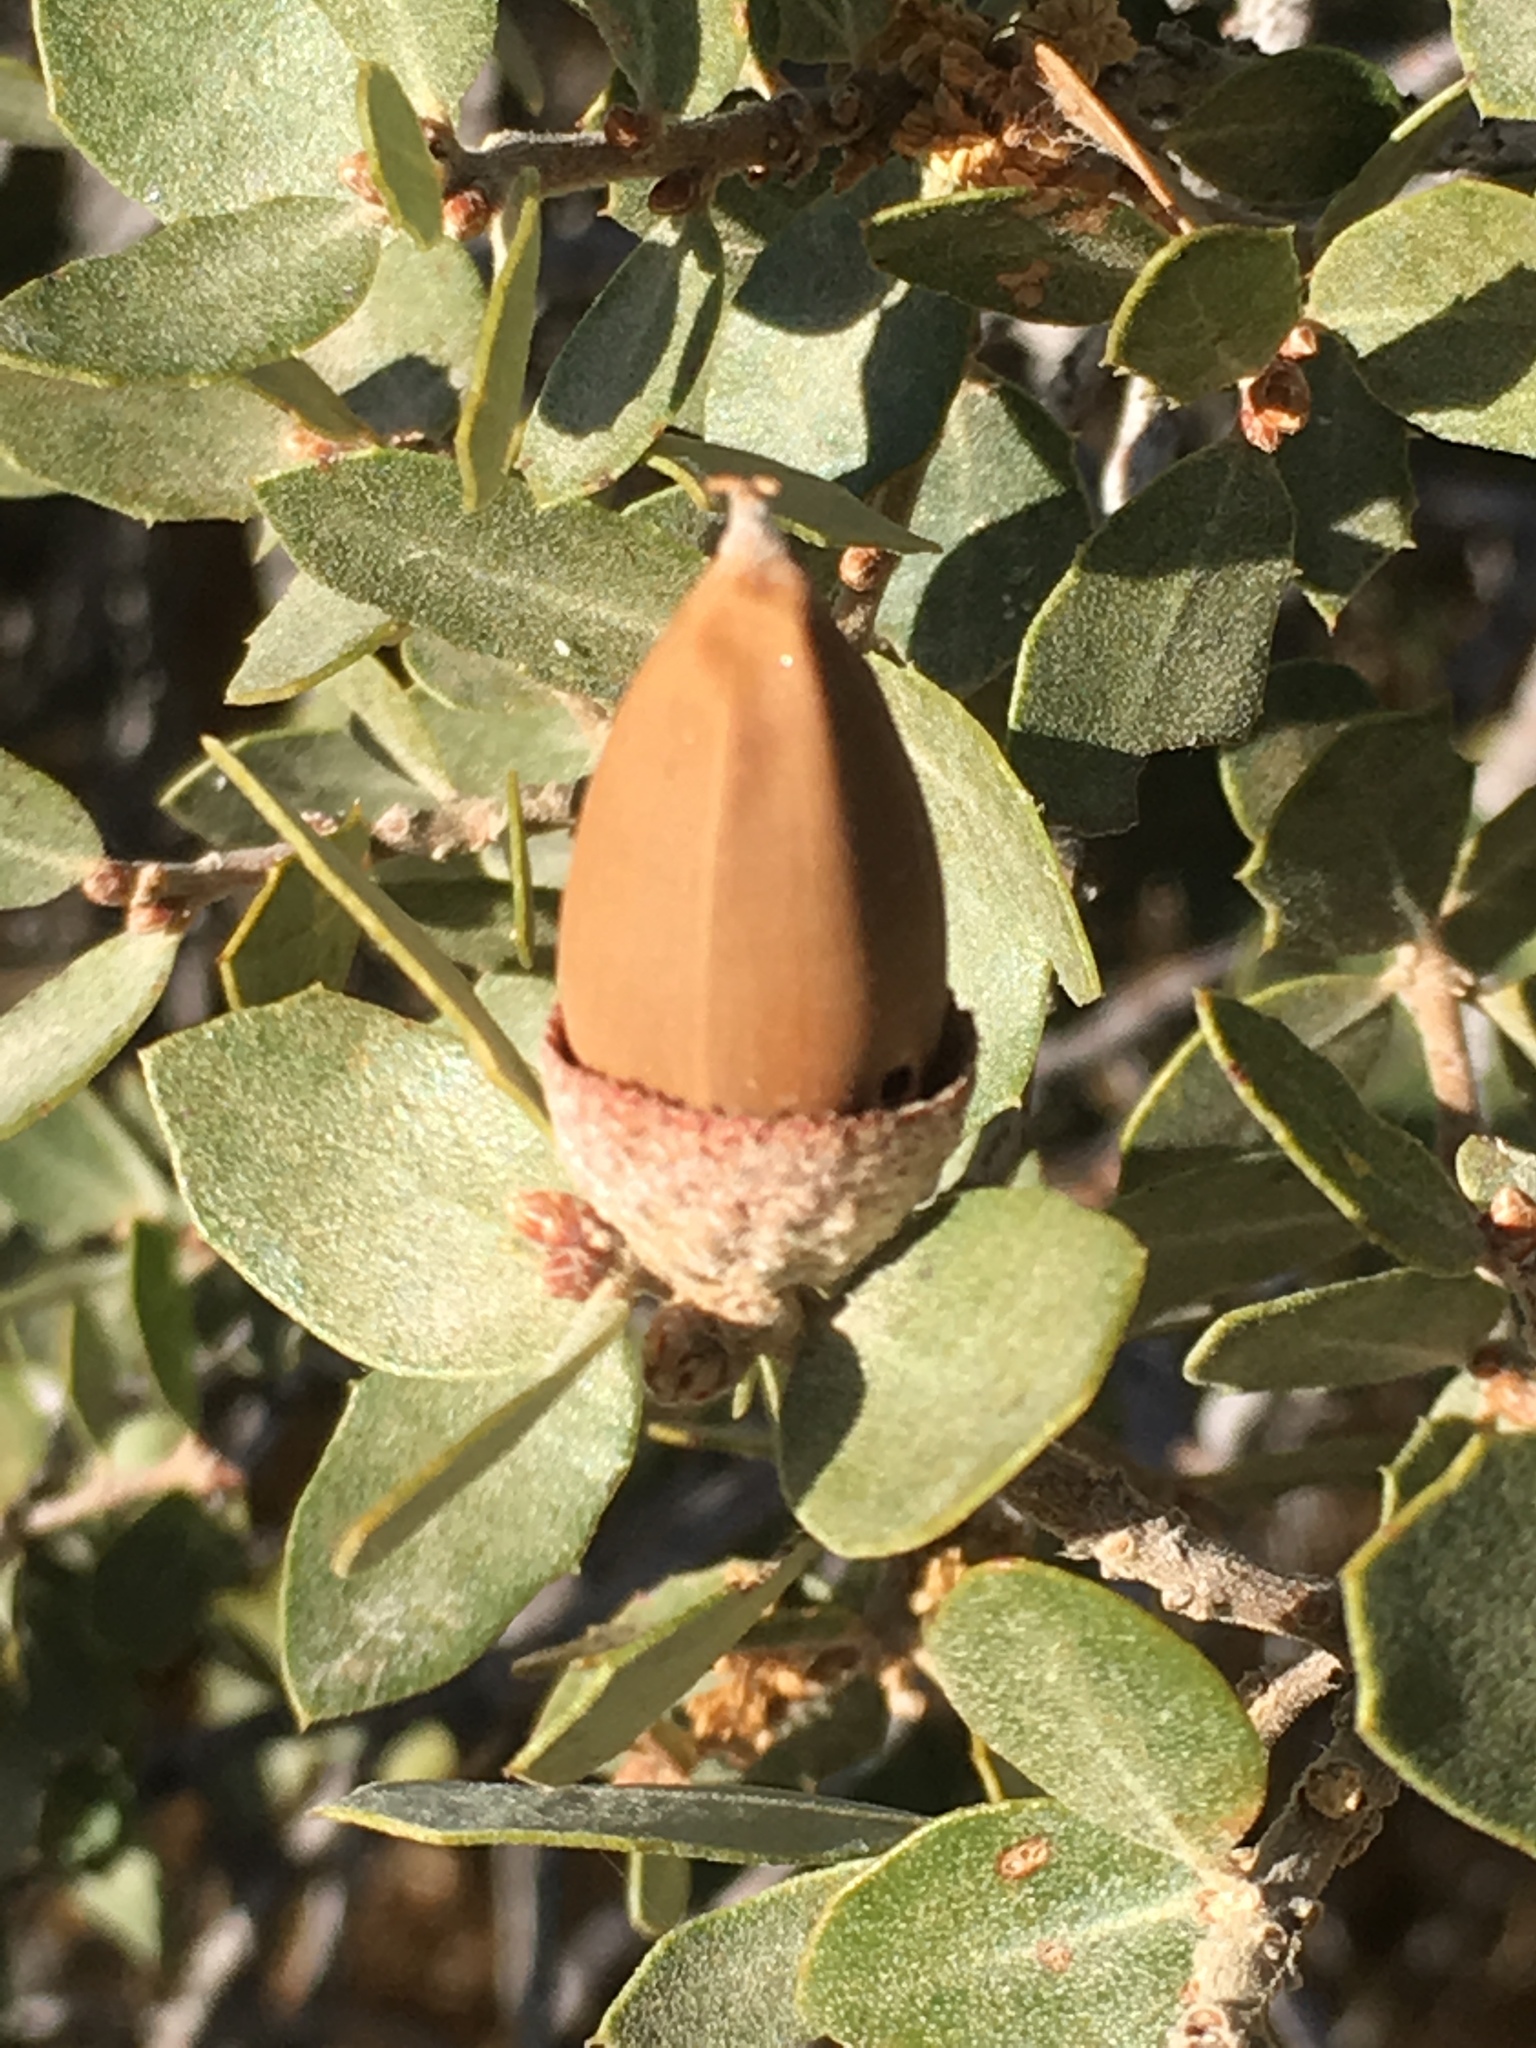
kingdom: Plantae
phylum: Tracheophyta
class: Magnoliopsida
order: Fagales
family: Fagaceae
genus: Quercus
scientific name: Quercus cornelius-mulleri
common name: Muller oak
